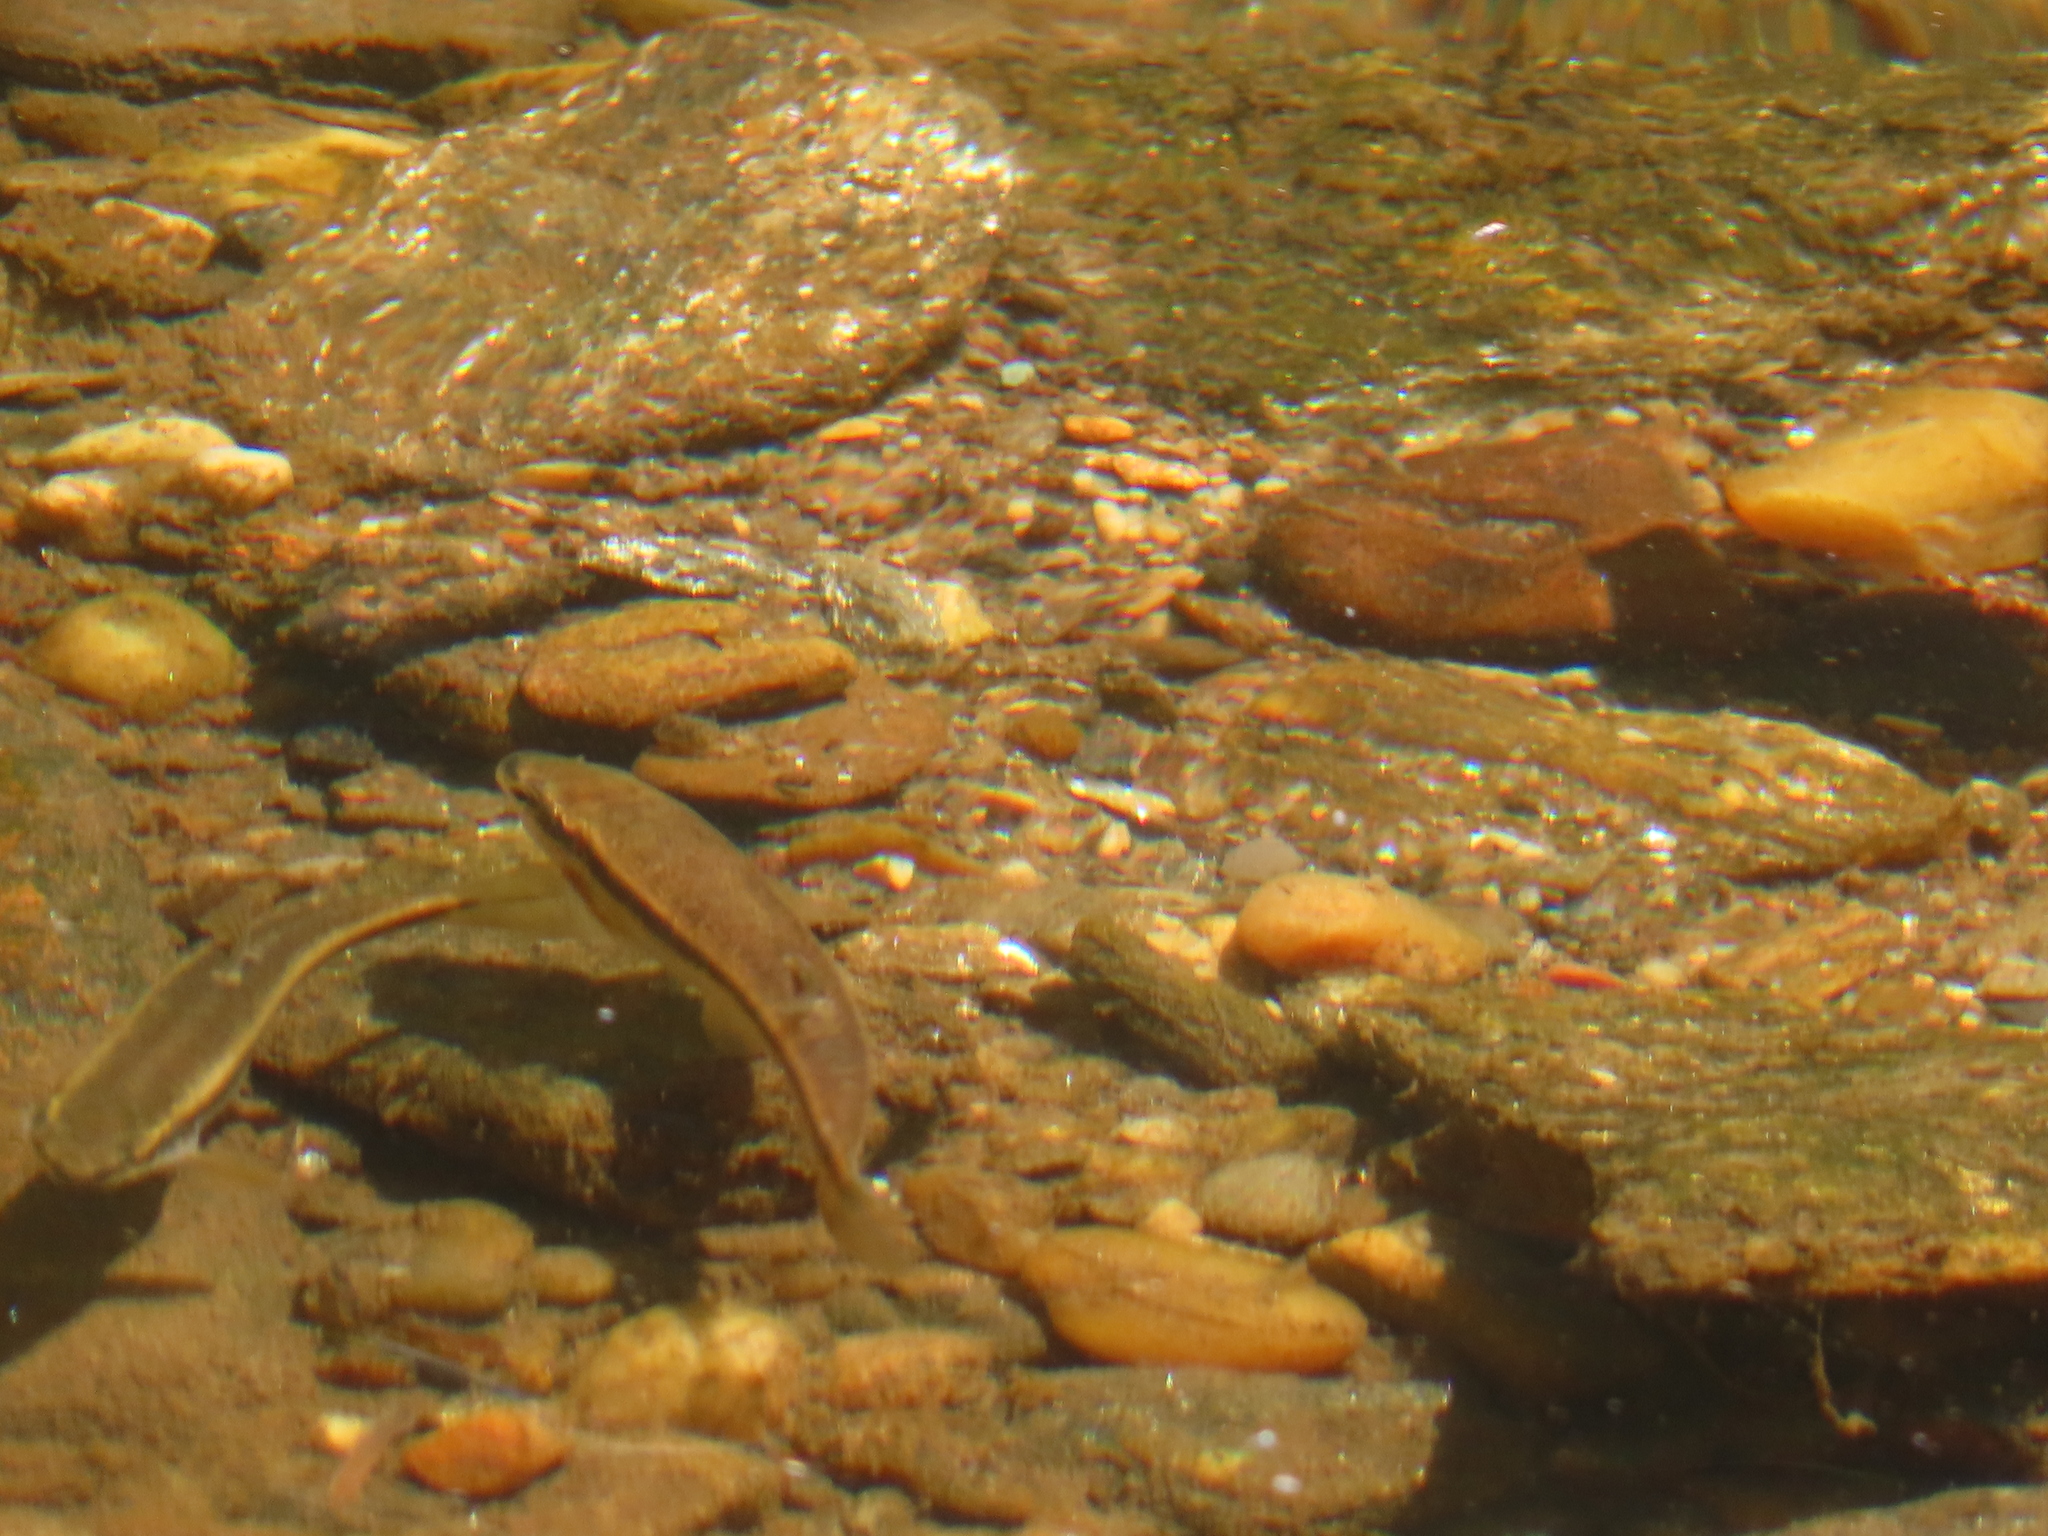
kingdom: Animalia
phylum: Chordata
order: Cypriniformes
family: Cyprinidae
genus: Rhinichthys
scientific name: Rhinichthys atratulus
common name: Eastern blacknose dace
